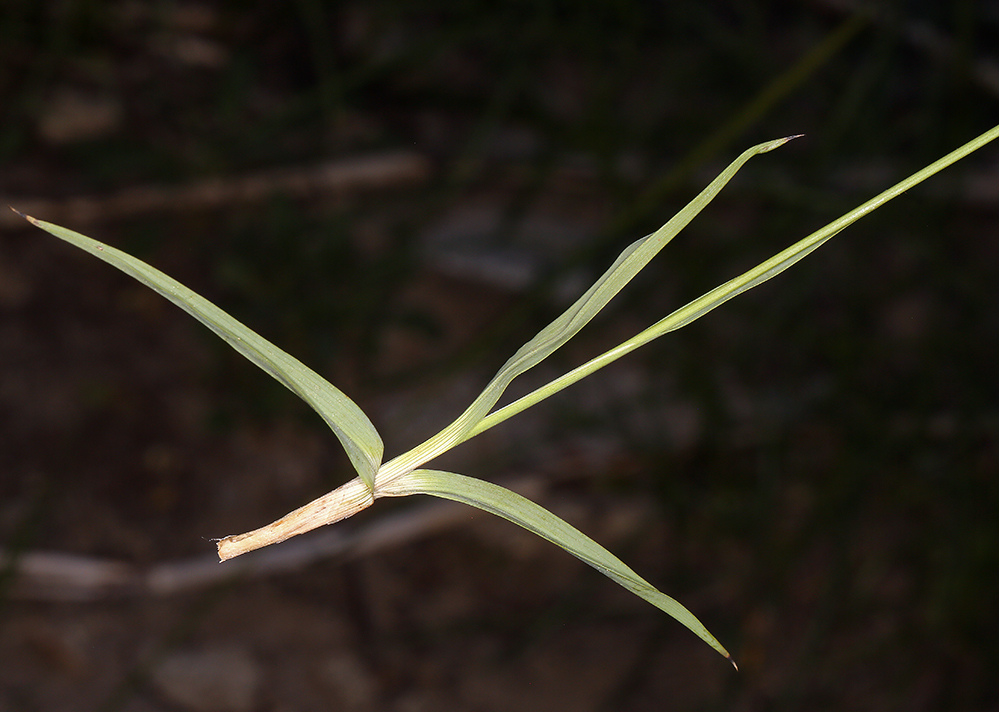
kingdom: Plantae
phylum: Tracheophyta
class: Liliopsida
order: Poales
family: Juncaceae
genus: Juncus
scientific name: Juncus orthophyllus
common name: Straight-leaf rush
